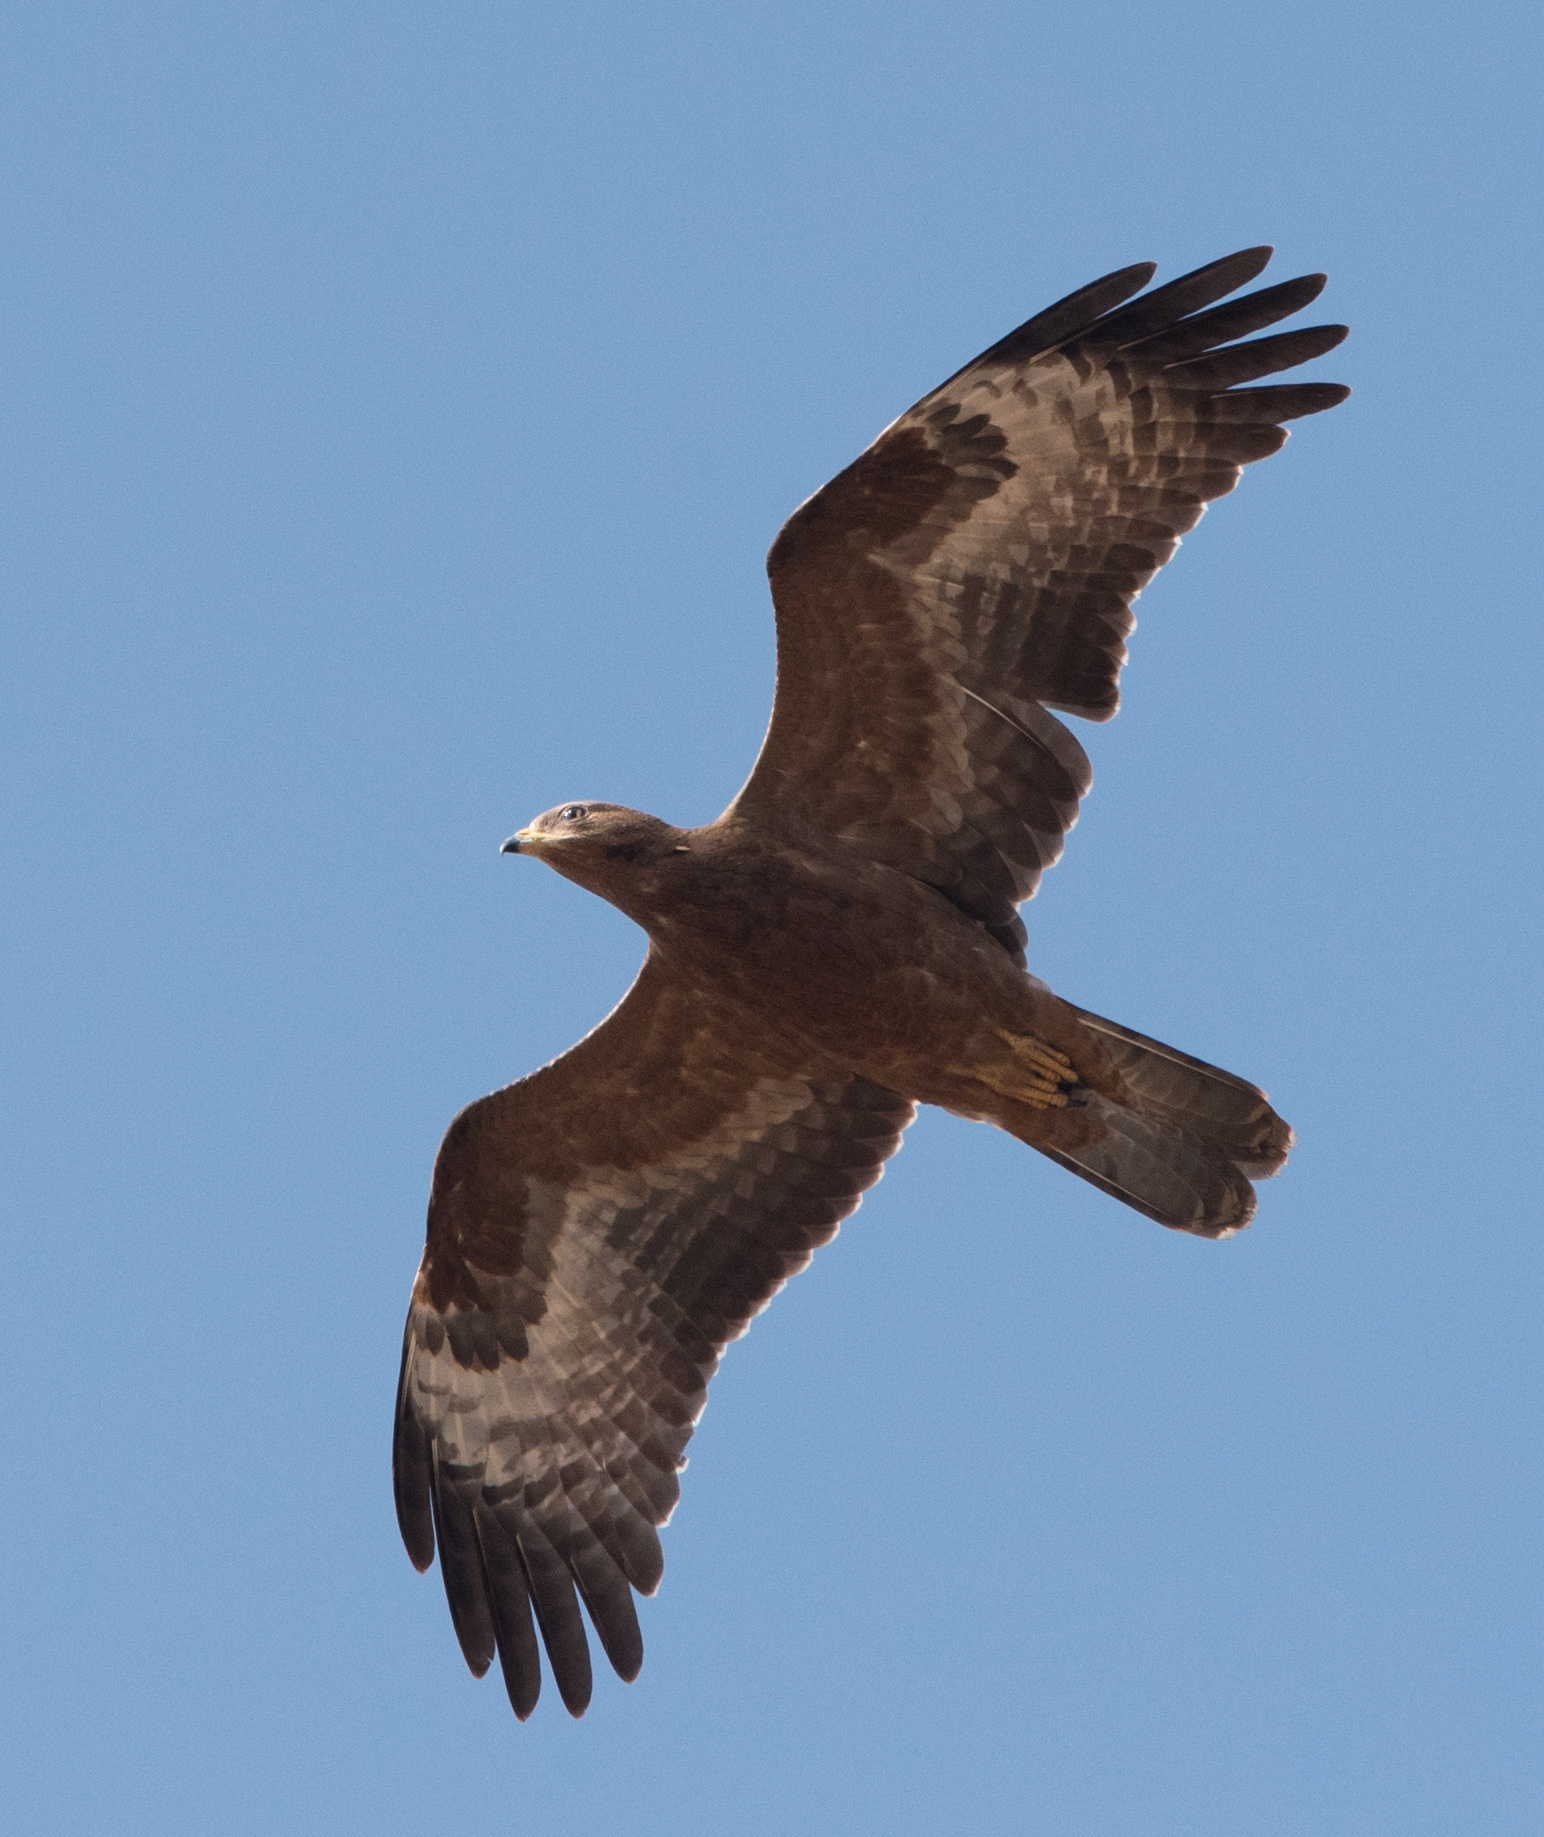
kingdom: Animalia
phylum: Chordata
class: Aves
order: Accipitriformes
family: Accipitridae
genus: Pernis
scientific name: Pernis apivorus
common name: European honey buzzard
